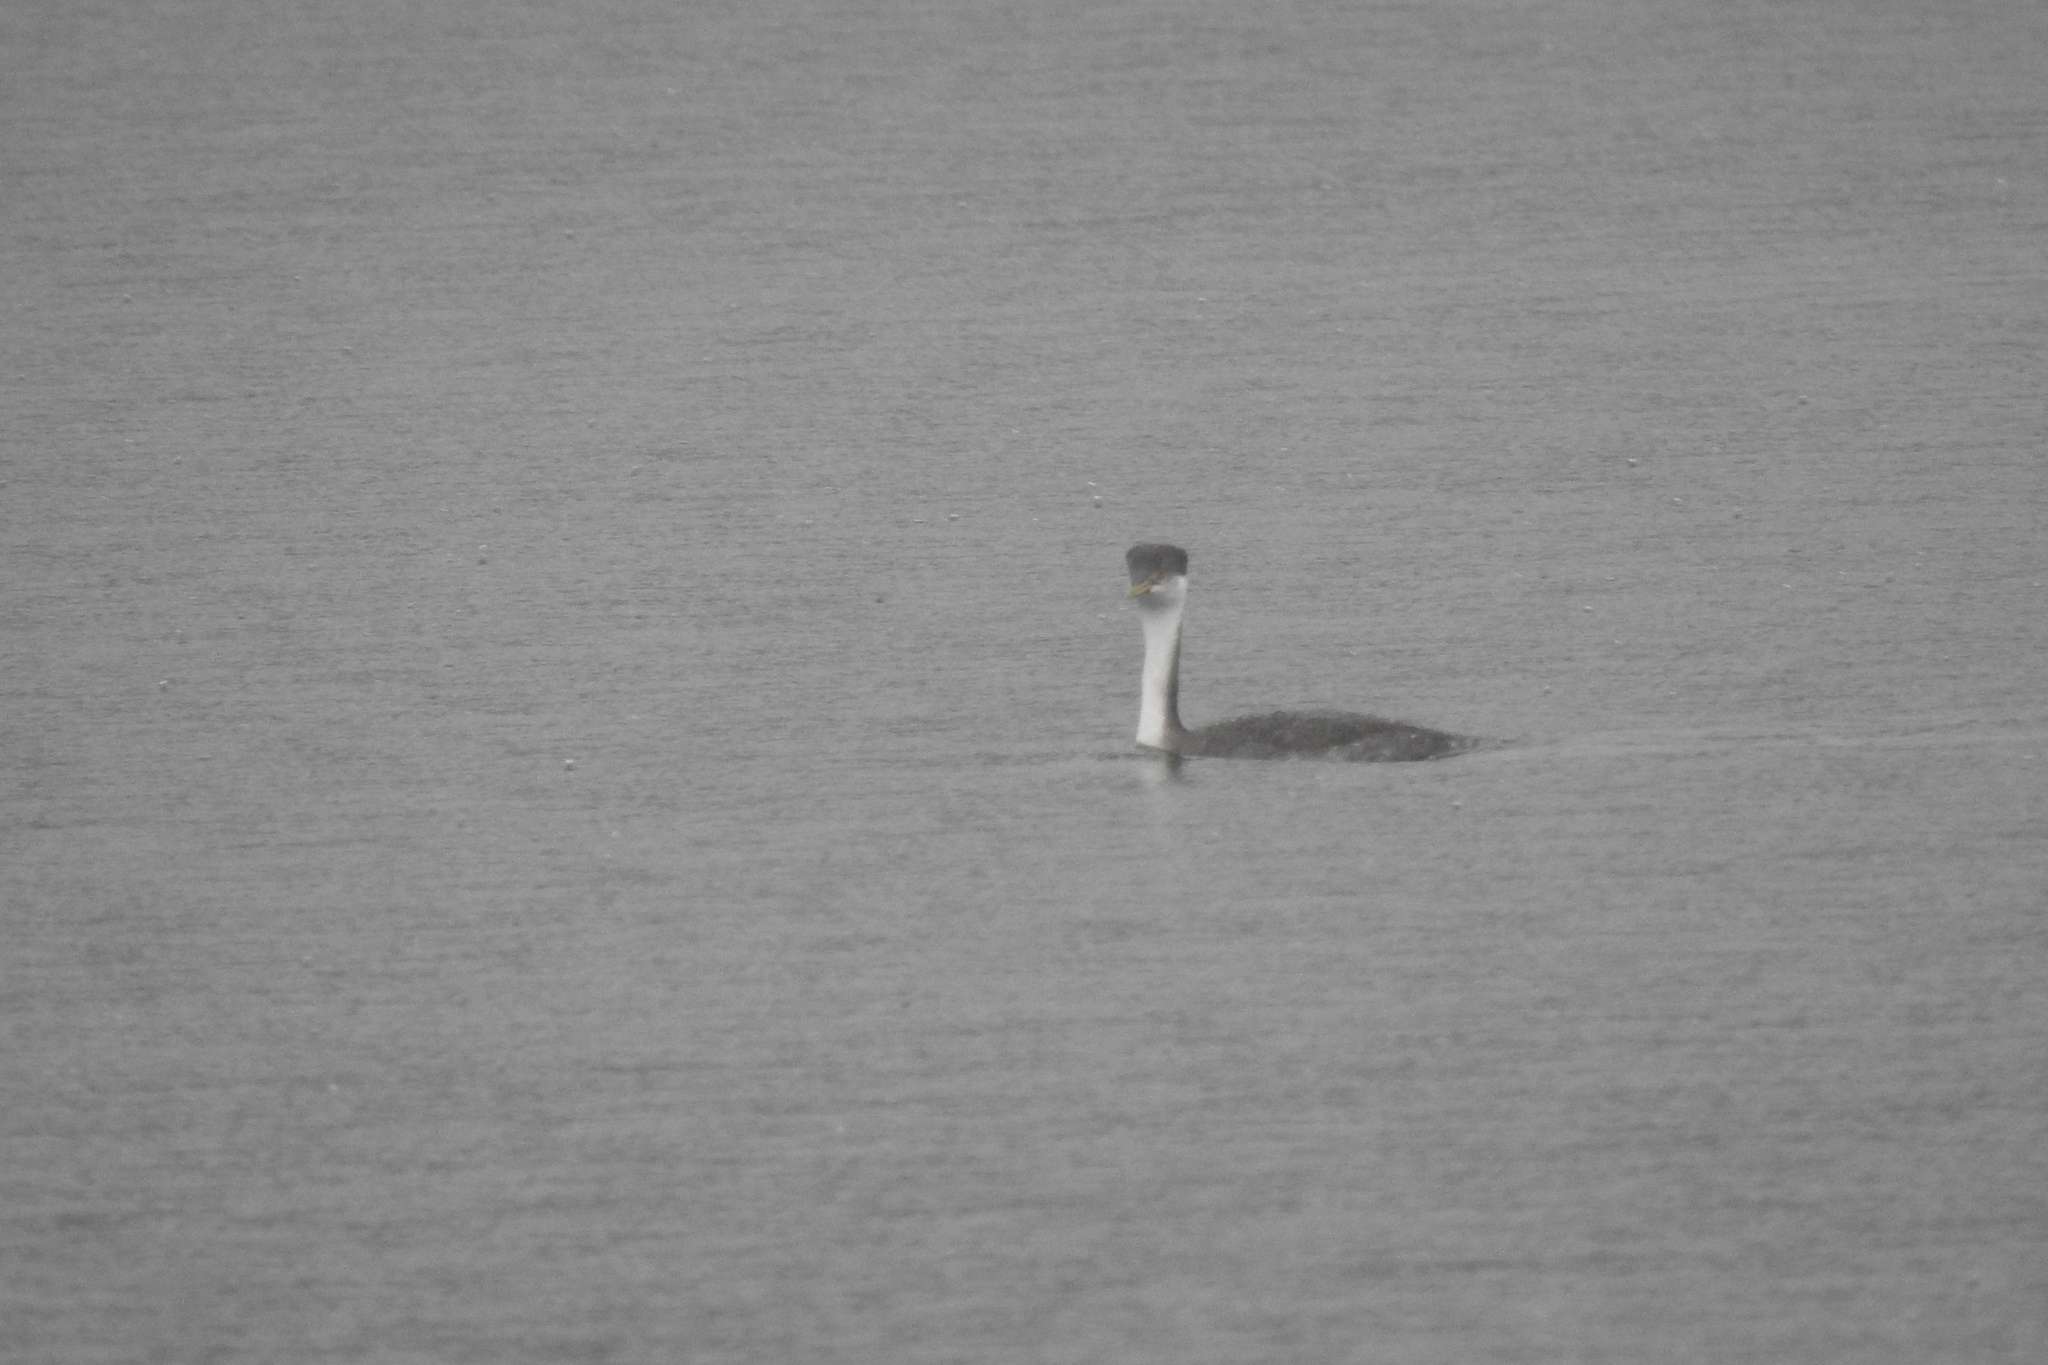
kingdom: Animalia
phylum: Chordata
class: Aves
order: Podicipediformes
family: Podicipedidae
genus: Aechmophorus
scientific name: Aechmophorus occidentalis
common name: Western grebe
